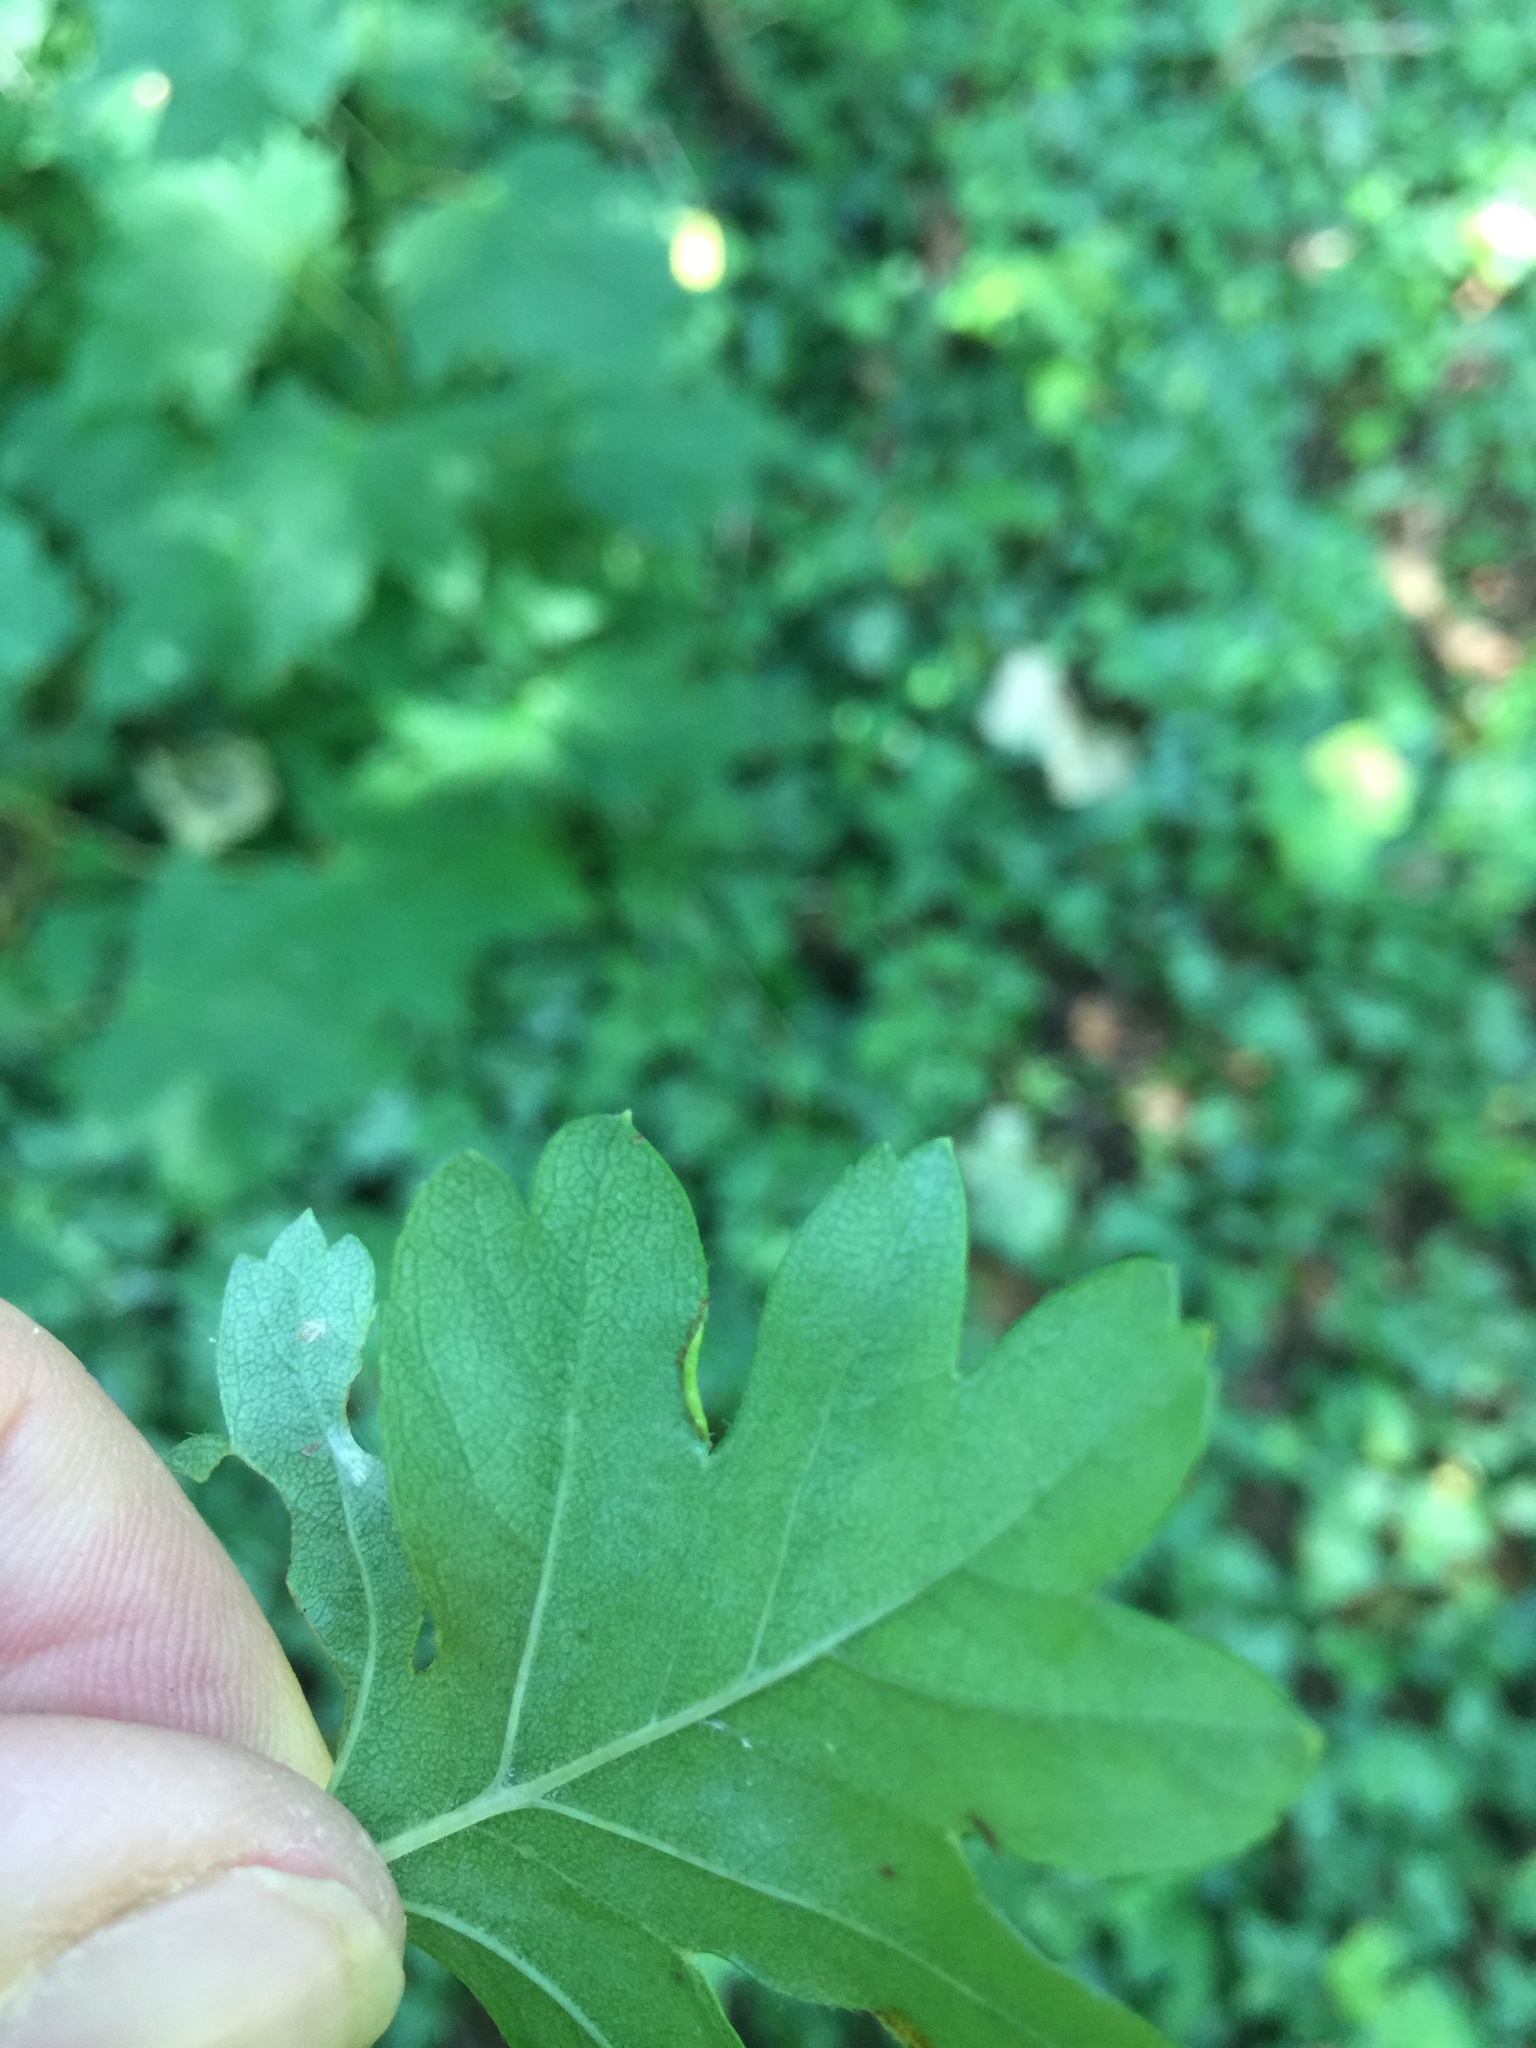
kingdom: Animalia
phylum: Arthropoda
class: Arachnida
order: Trombidiformes
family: Eriophyidae
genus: Phyllocoptes
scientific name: Phyllocoptes goniothorax
